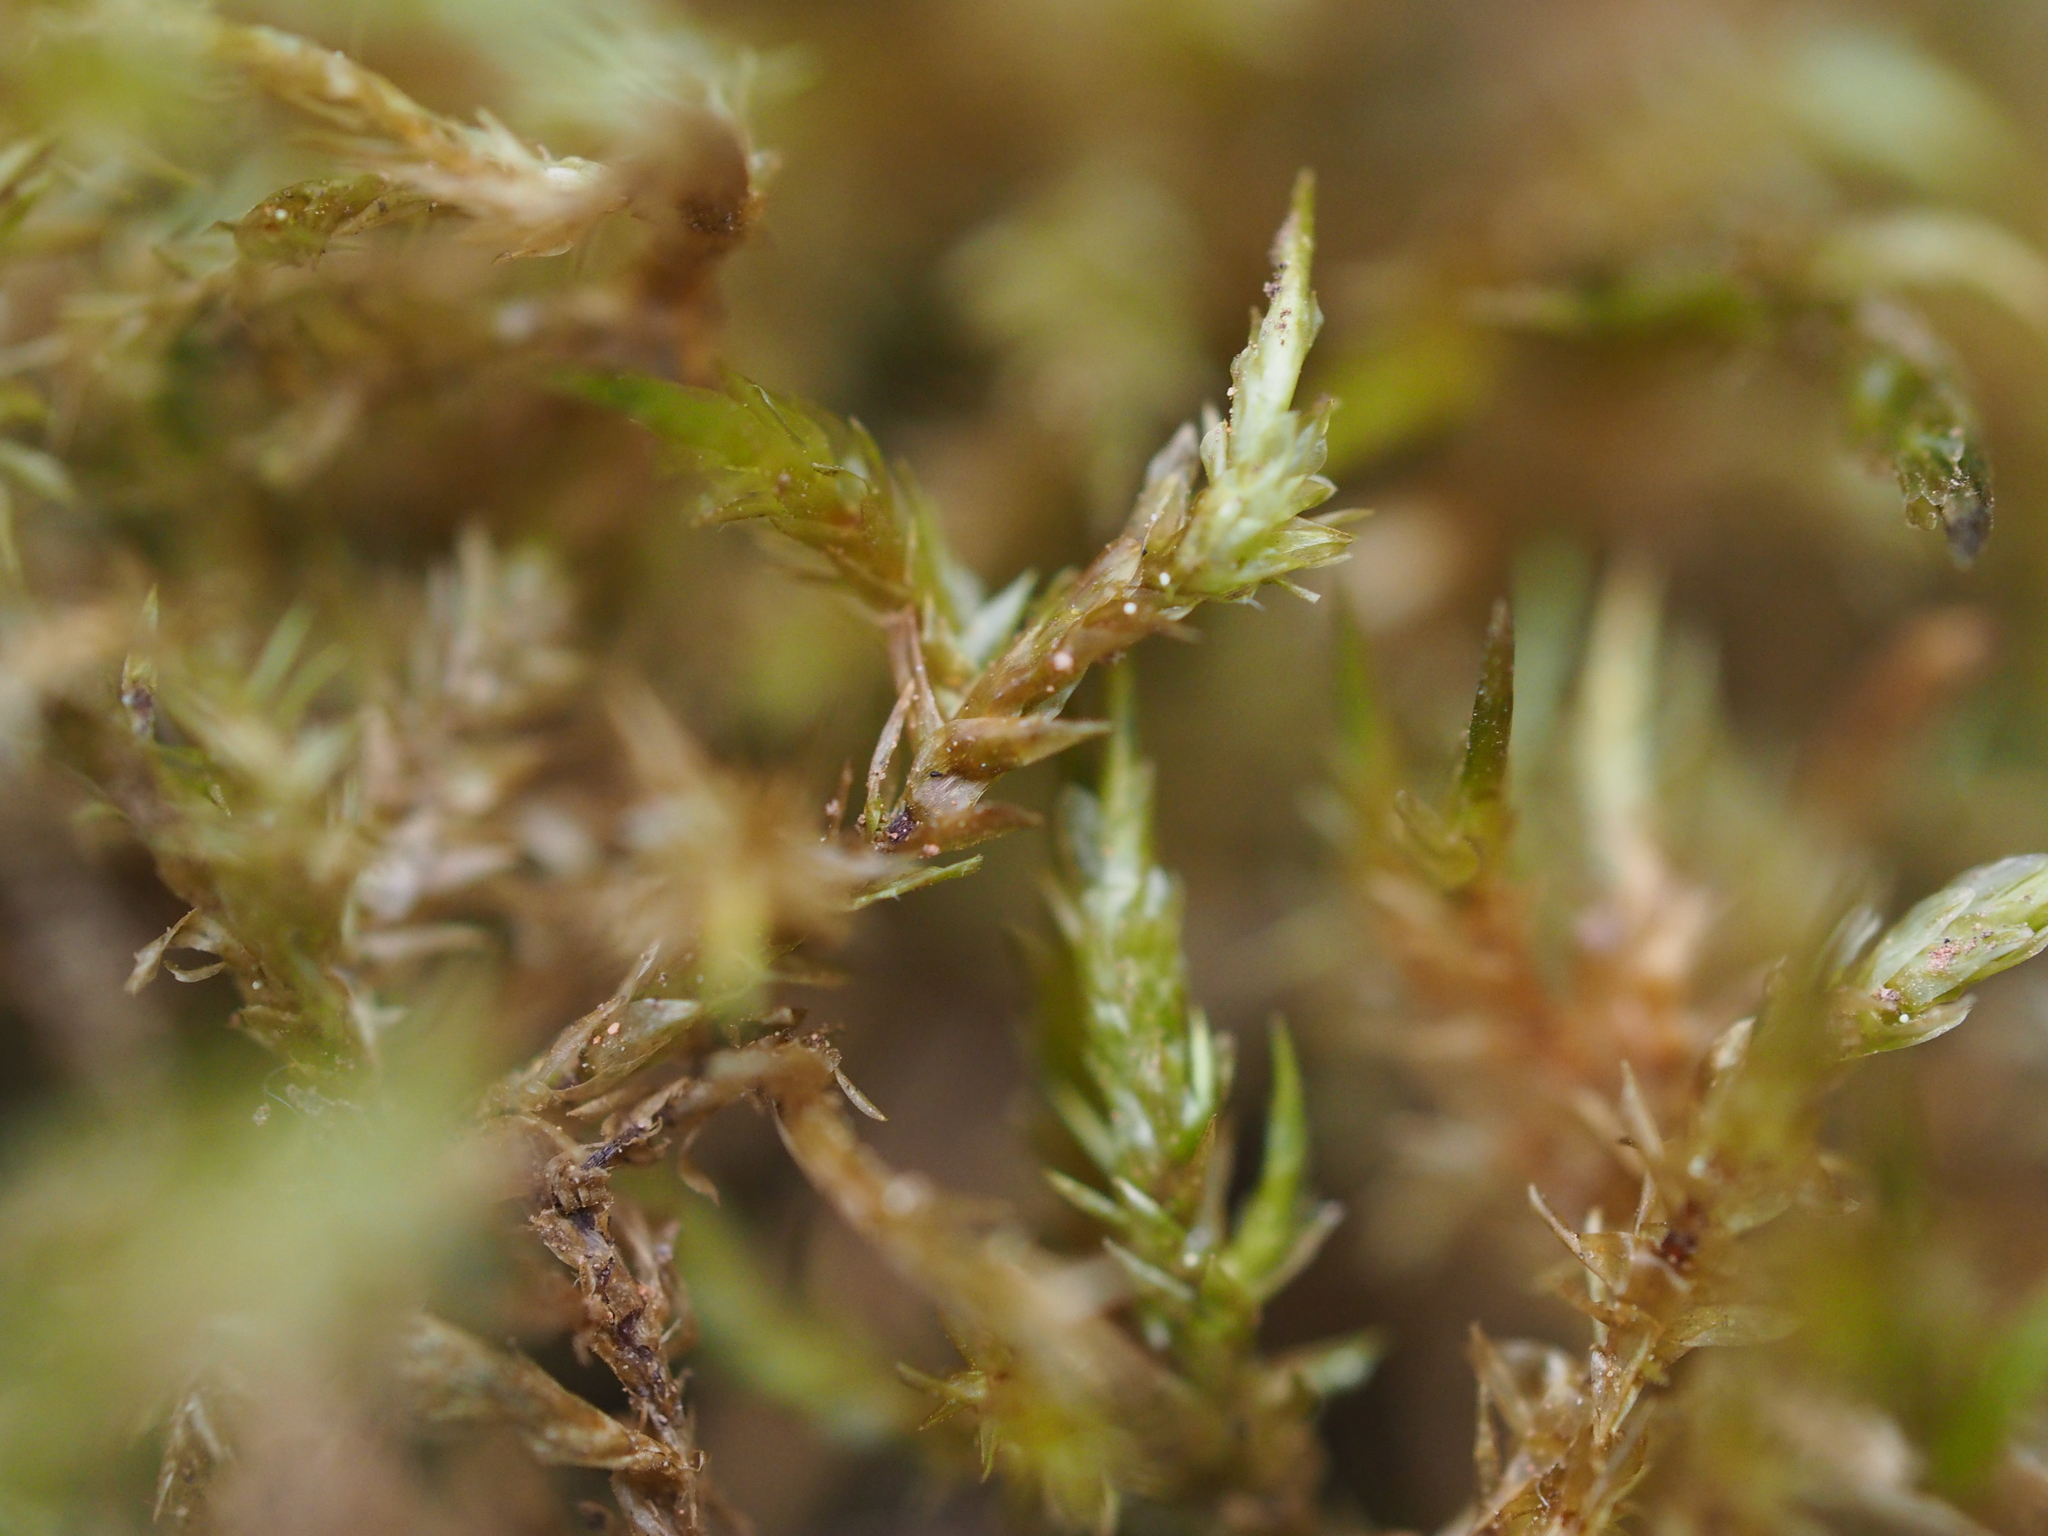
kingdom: Plantae
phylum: Bryophyta
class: Bryopsida
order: Hypnales
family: Pylaisiaceae
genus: Calliergonella
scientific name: Calliergonella cuspidata
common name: Common large wetland moss
